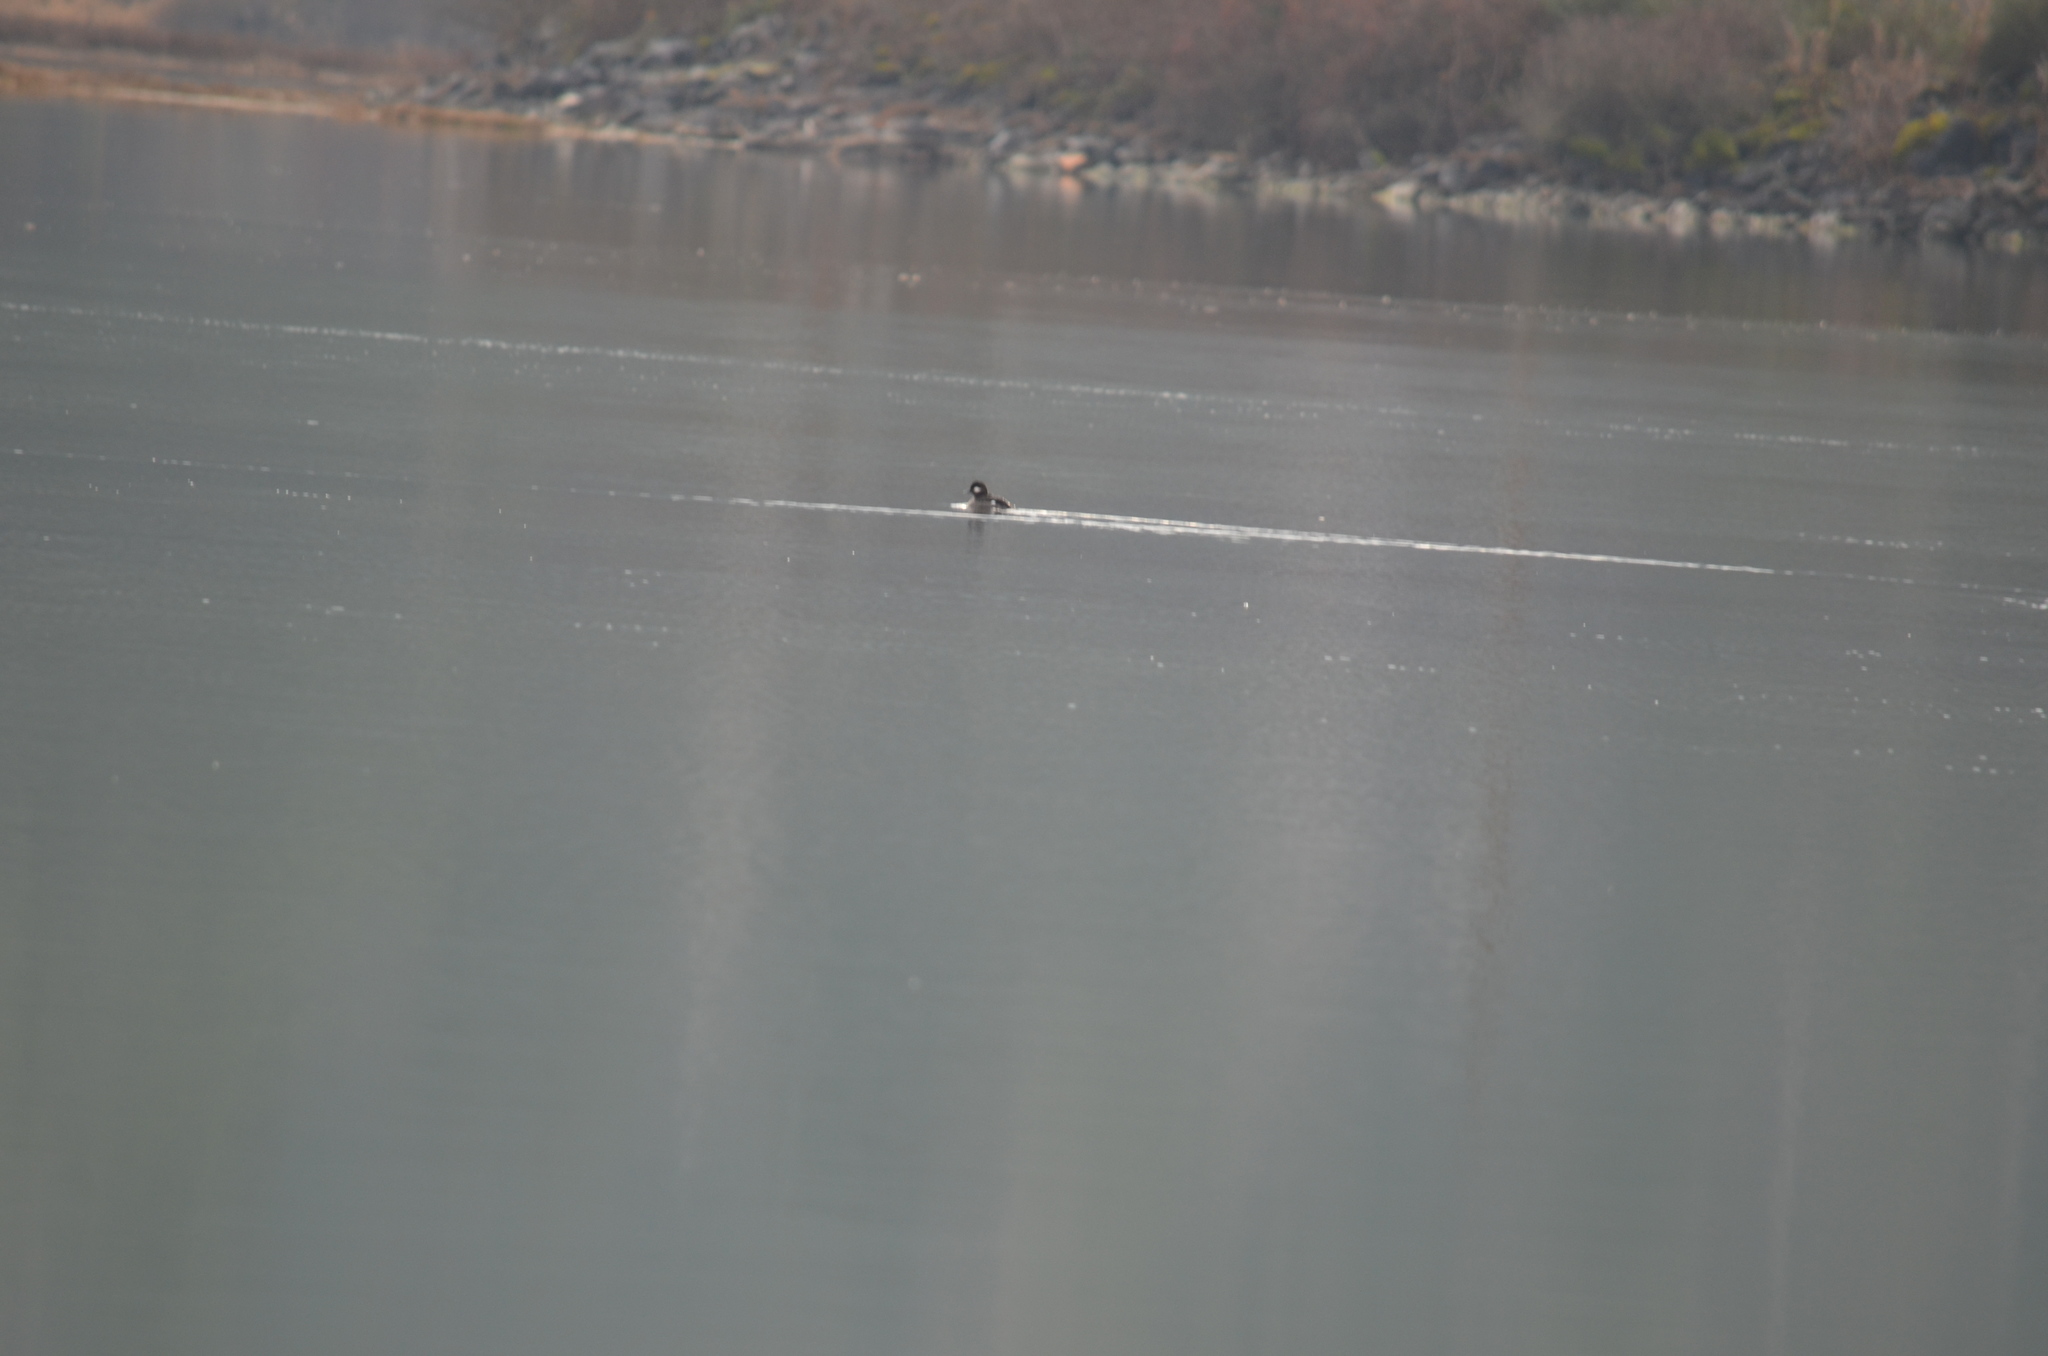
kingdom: Animalia
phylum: Chordata
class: Aves
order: Anseriformes
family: Anatidae
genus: Bucephala
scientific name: Bucephala albeola
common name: Bufflehead
